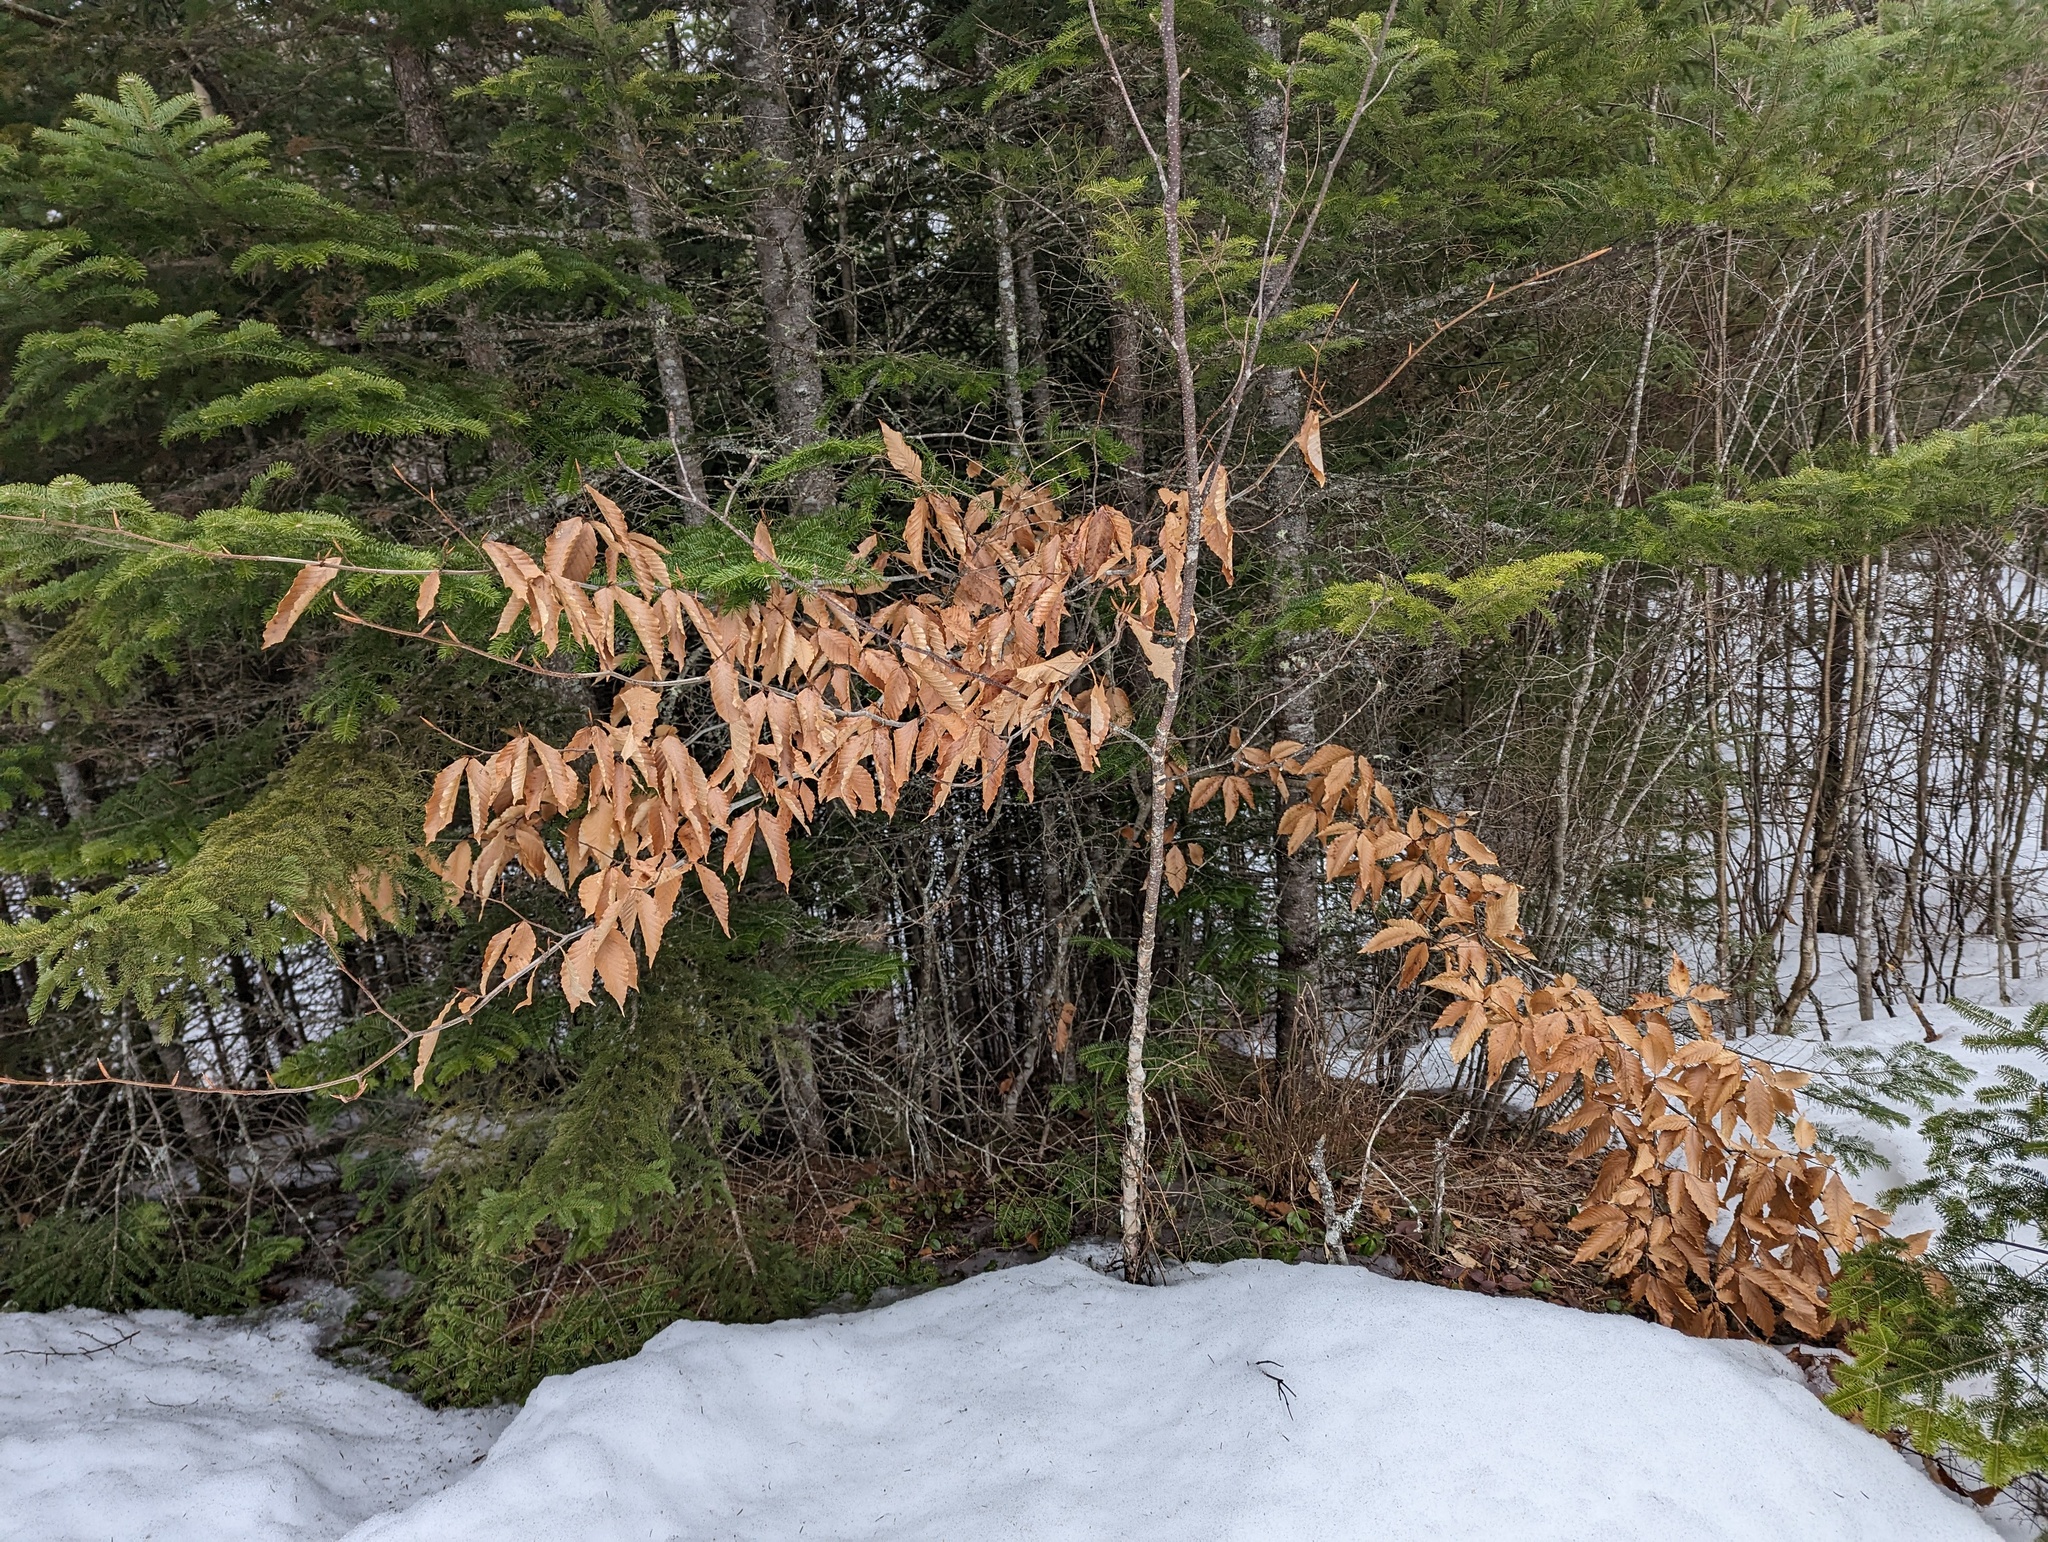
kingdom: Plantae
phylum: Tracheophyta
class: Magnoliopsida
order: Fagales
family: Fagaceae
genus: Fagus
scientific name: Fagus grandifolia
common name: American beech
